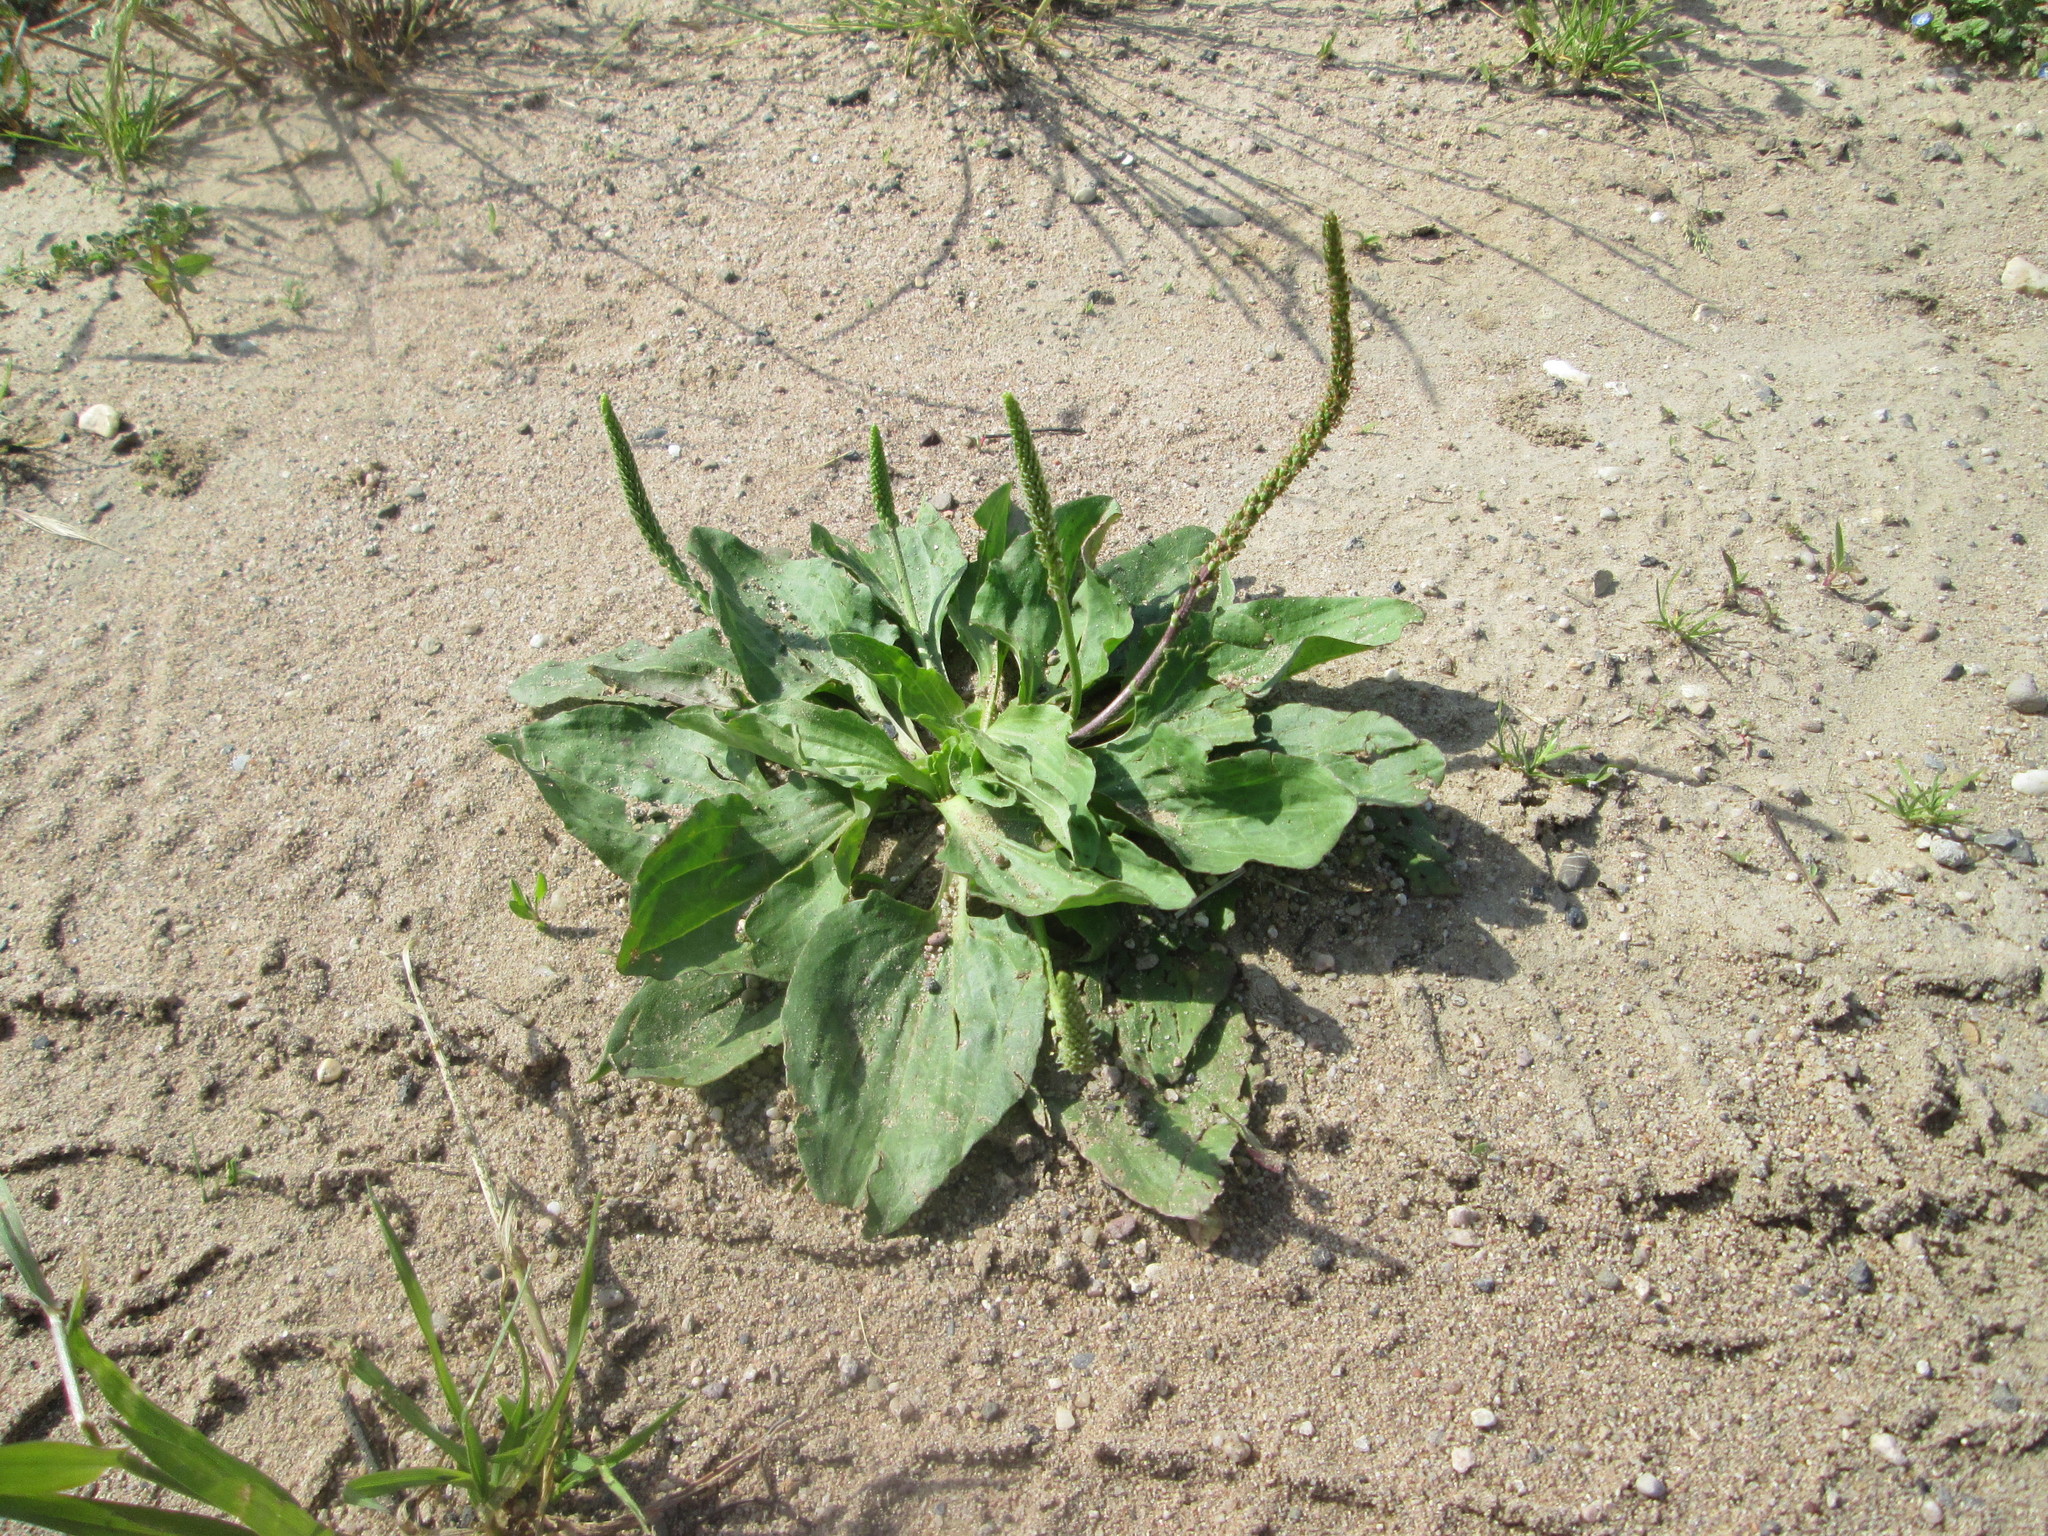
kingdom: Plantae
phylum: Tracheophyta
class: Magnoliopsida
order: Lamiales
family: Plantaginaceae
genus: Plantago
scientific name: Plantago major
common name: Common plantain
